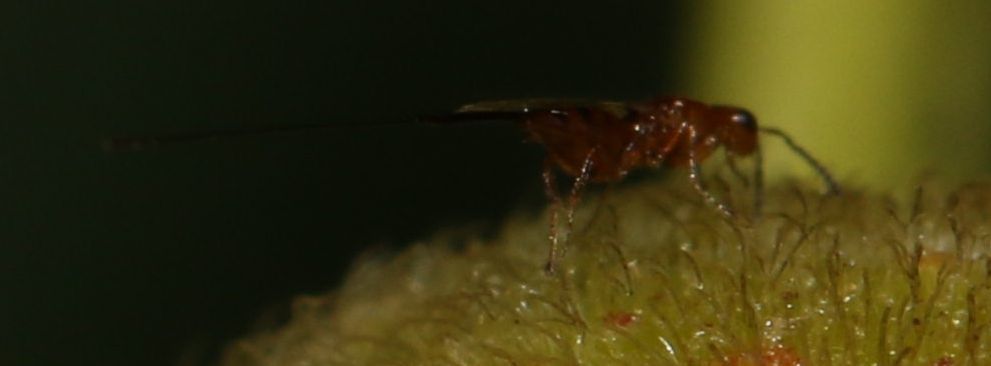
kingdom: Animalia
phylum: Arthropoda
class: Insecta
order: Hymenoptera
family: Agaonidae
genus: Philotrypesis
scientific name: Philotrypesis parca
